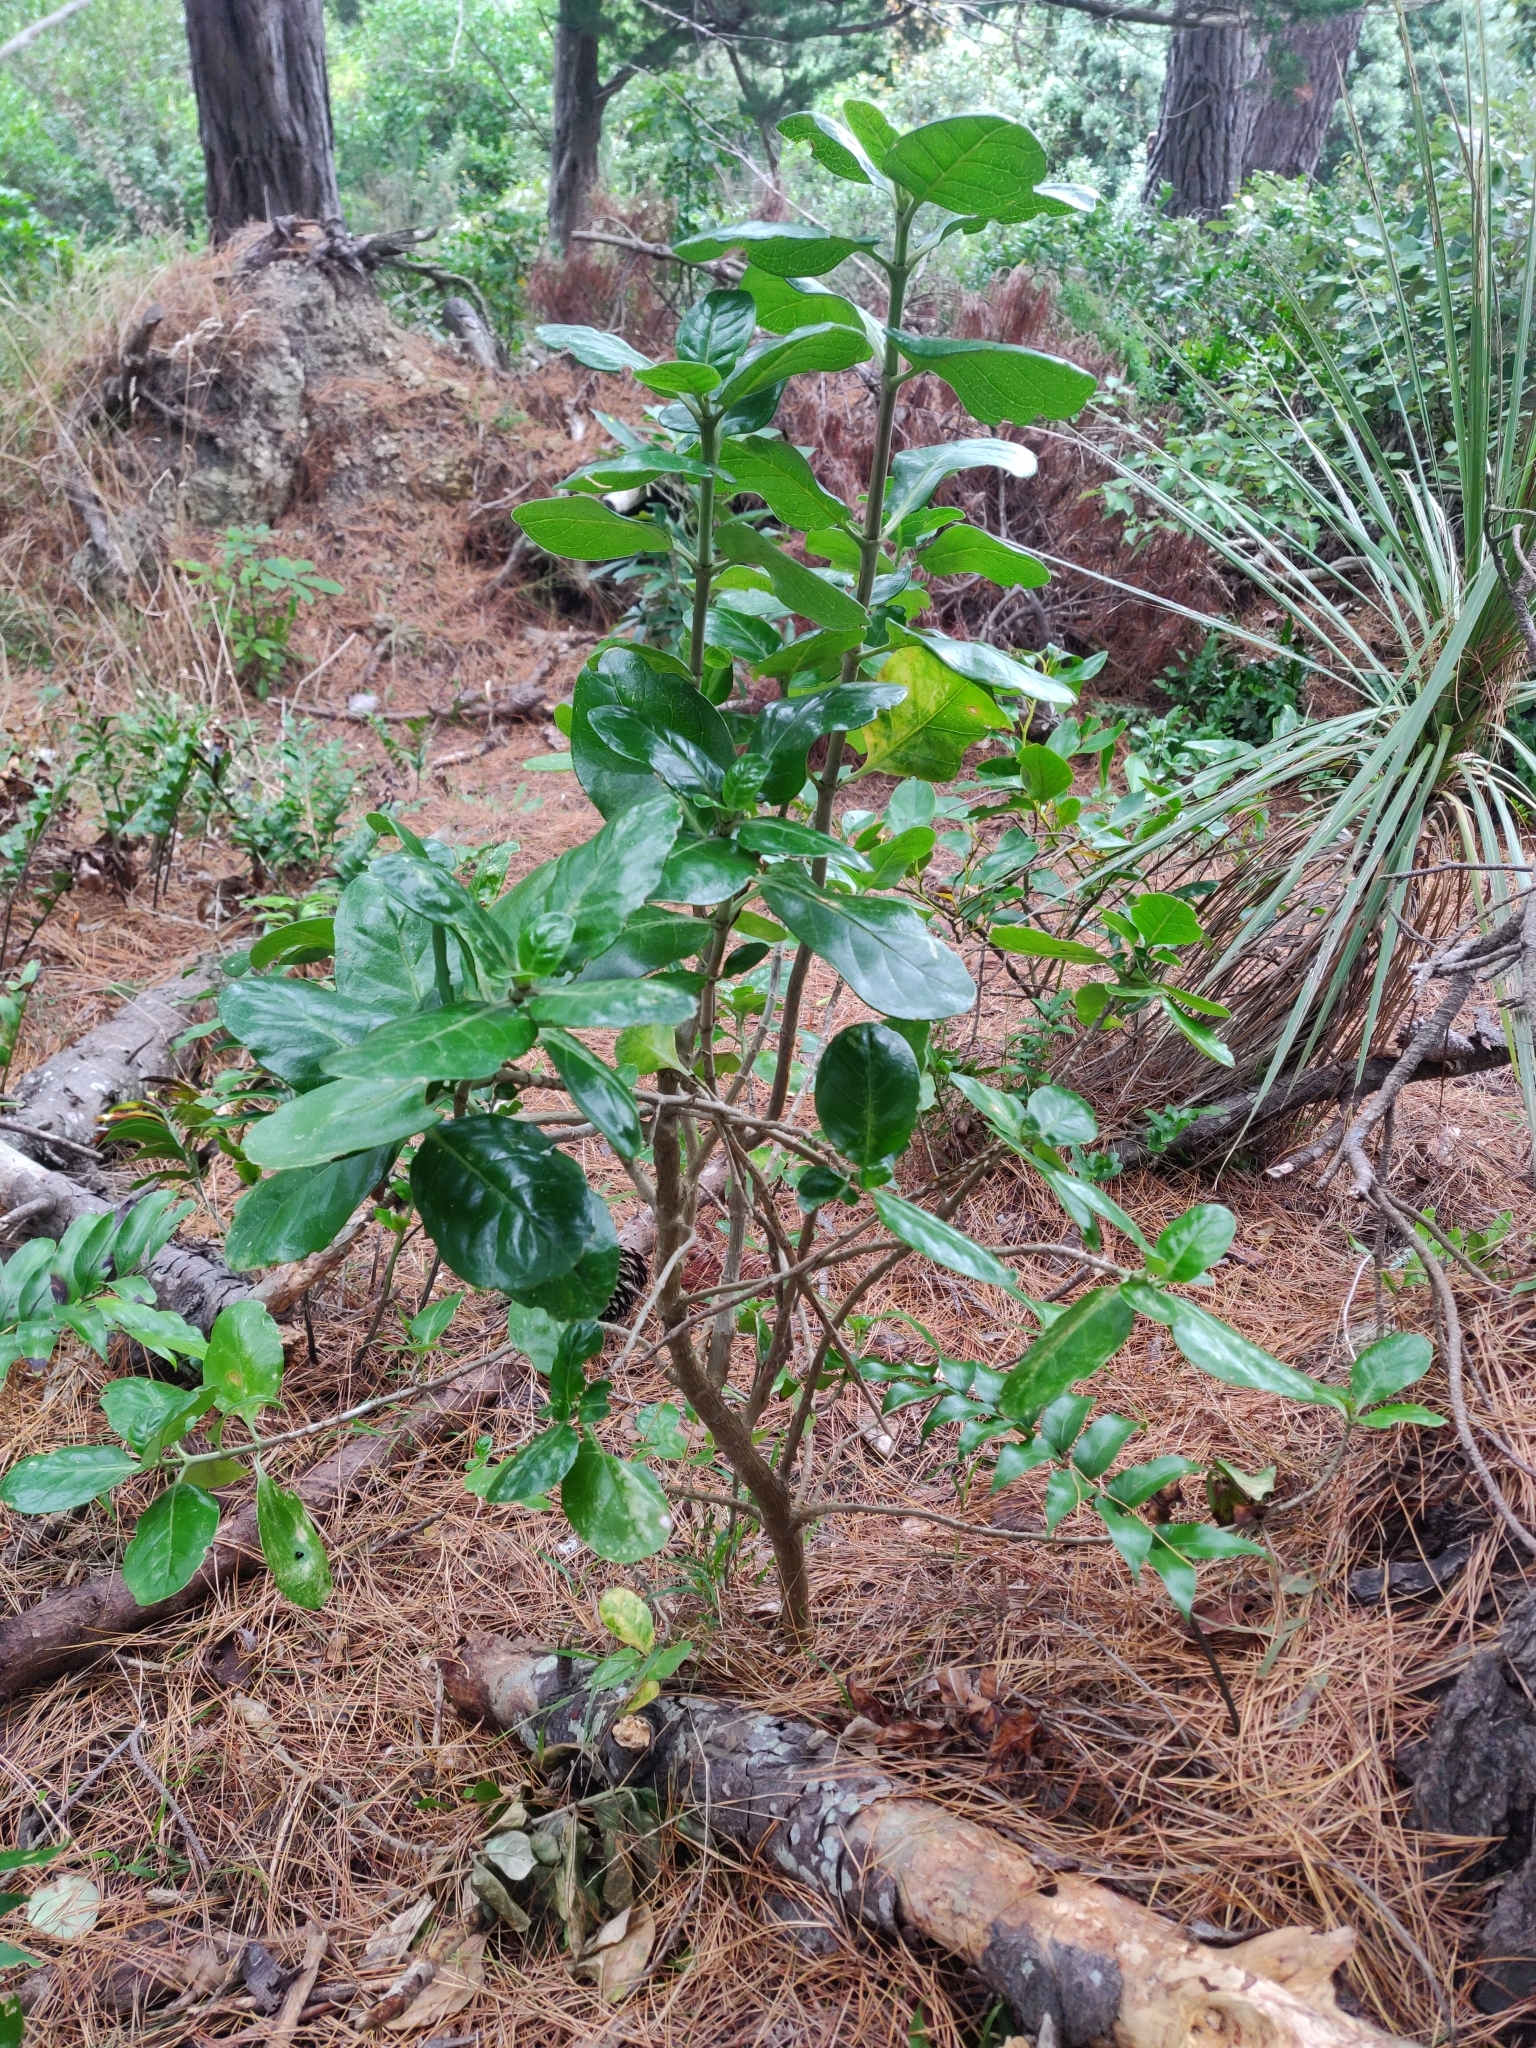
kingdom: Plantae
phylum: Tracheophyta
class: Magnoliopsida
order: Gentianales
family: Rubiaceae
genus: Coprosma
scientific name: Coprosma repens
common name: Tree bedstraw
